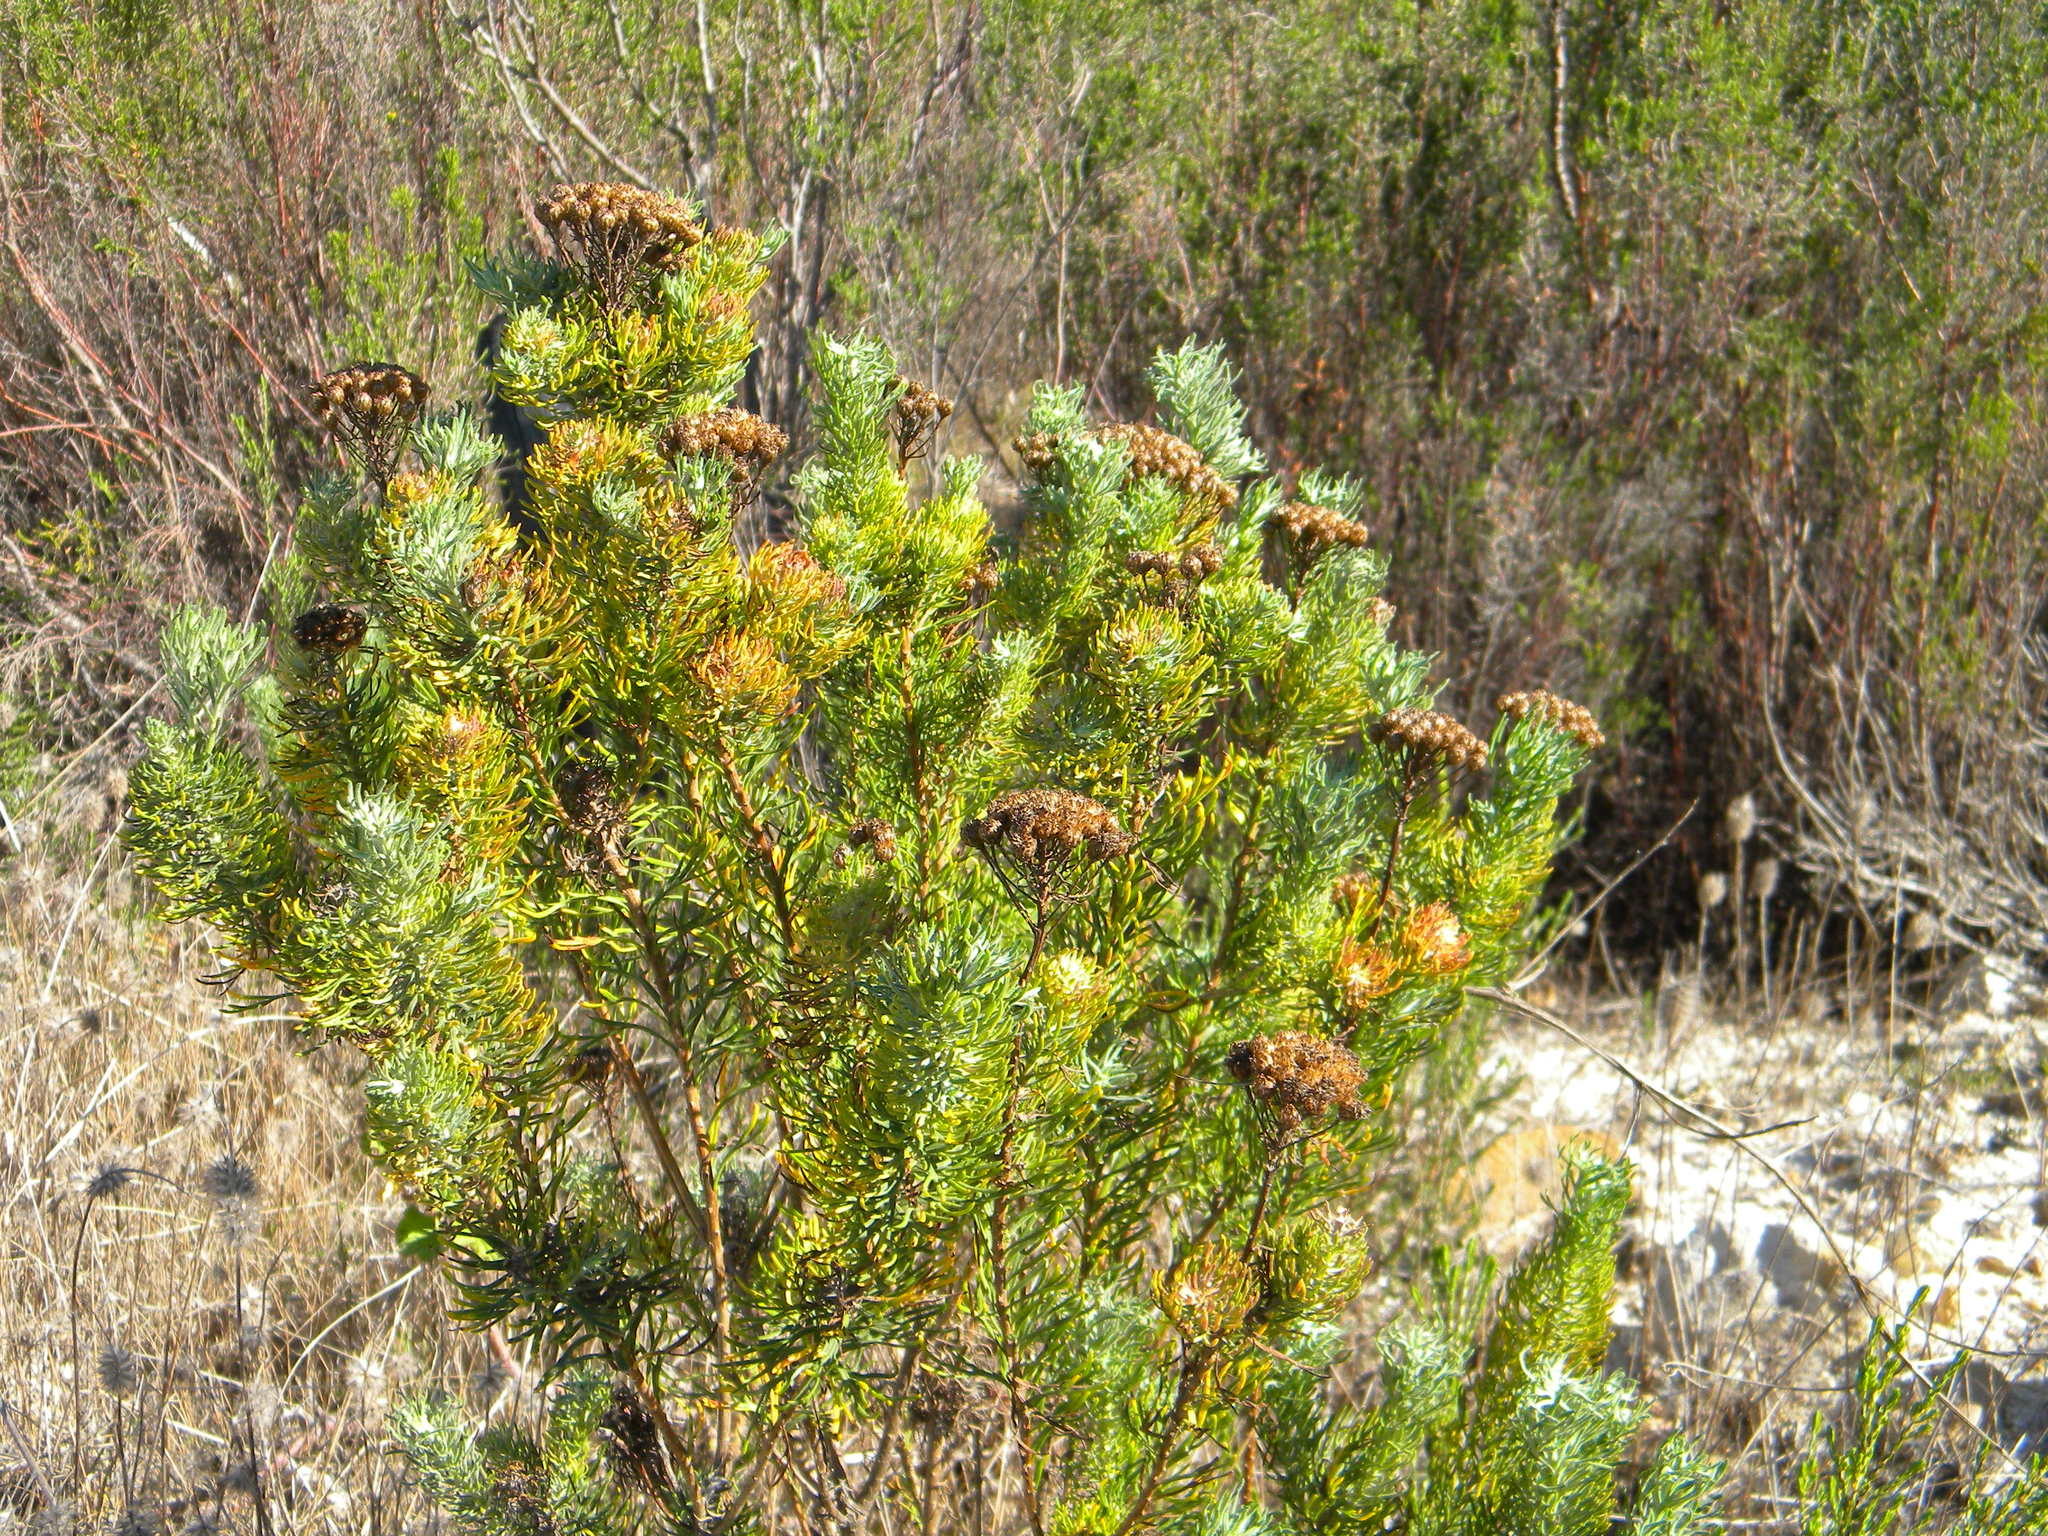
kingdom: Plantae
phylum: Tracheophyta
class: Magnoliopsida
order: Asterales
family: Asteraceae
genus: Athanasia
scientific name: Athanasia crithmifolia
